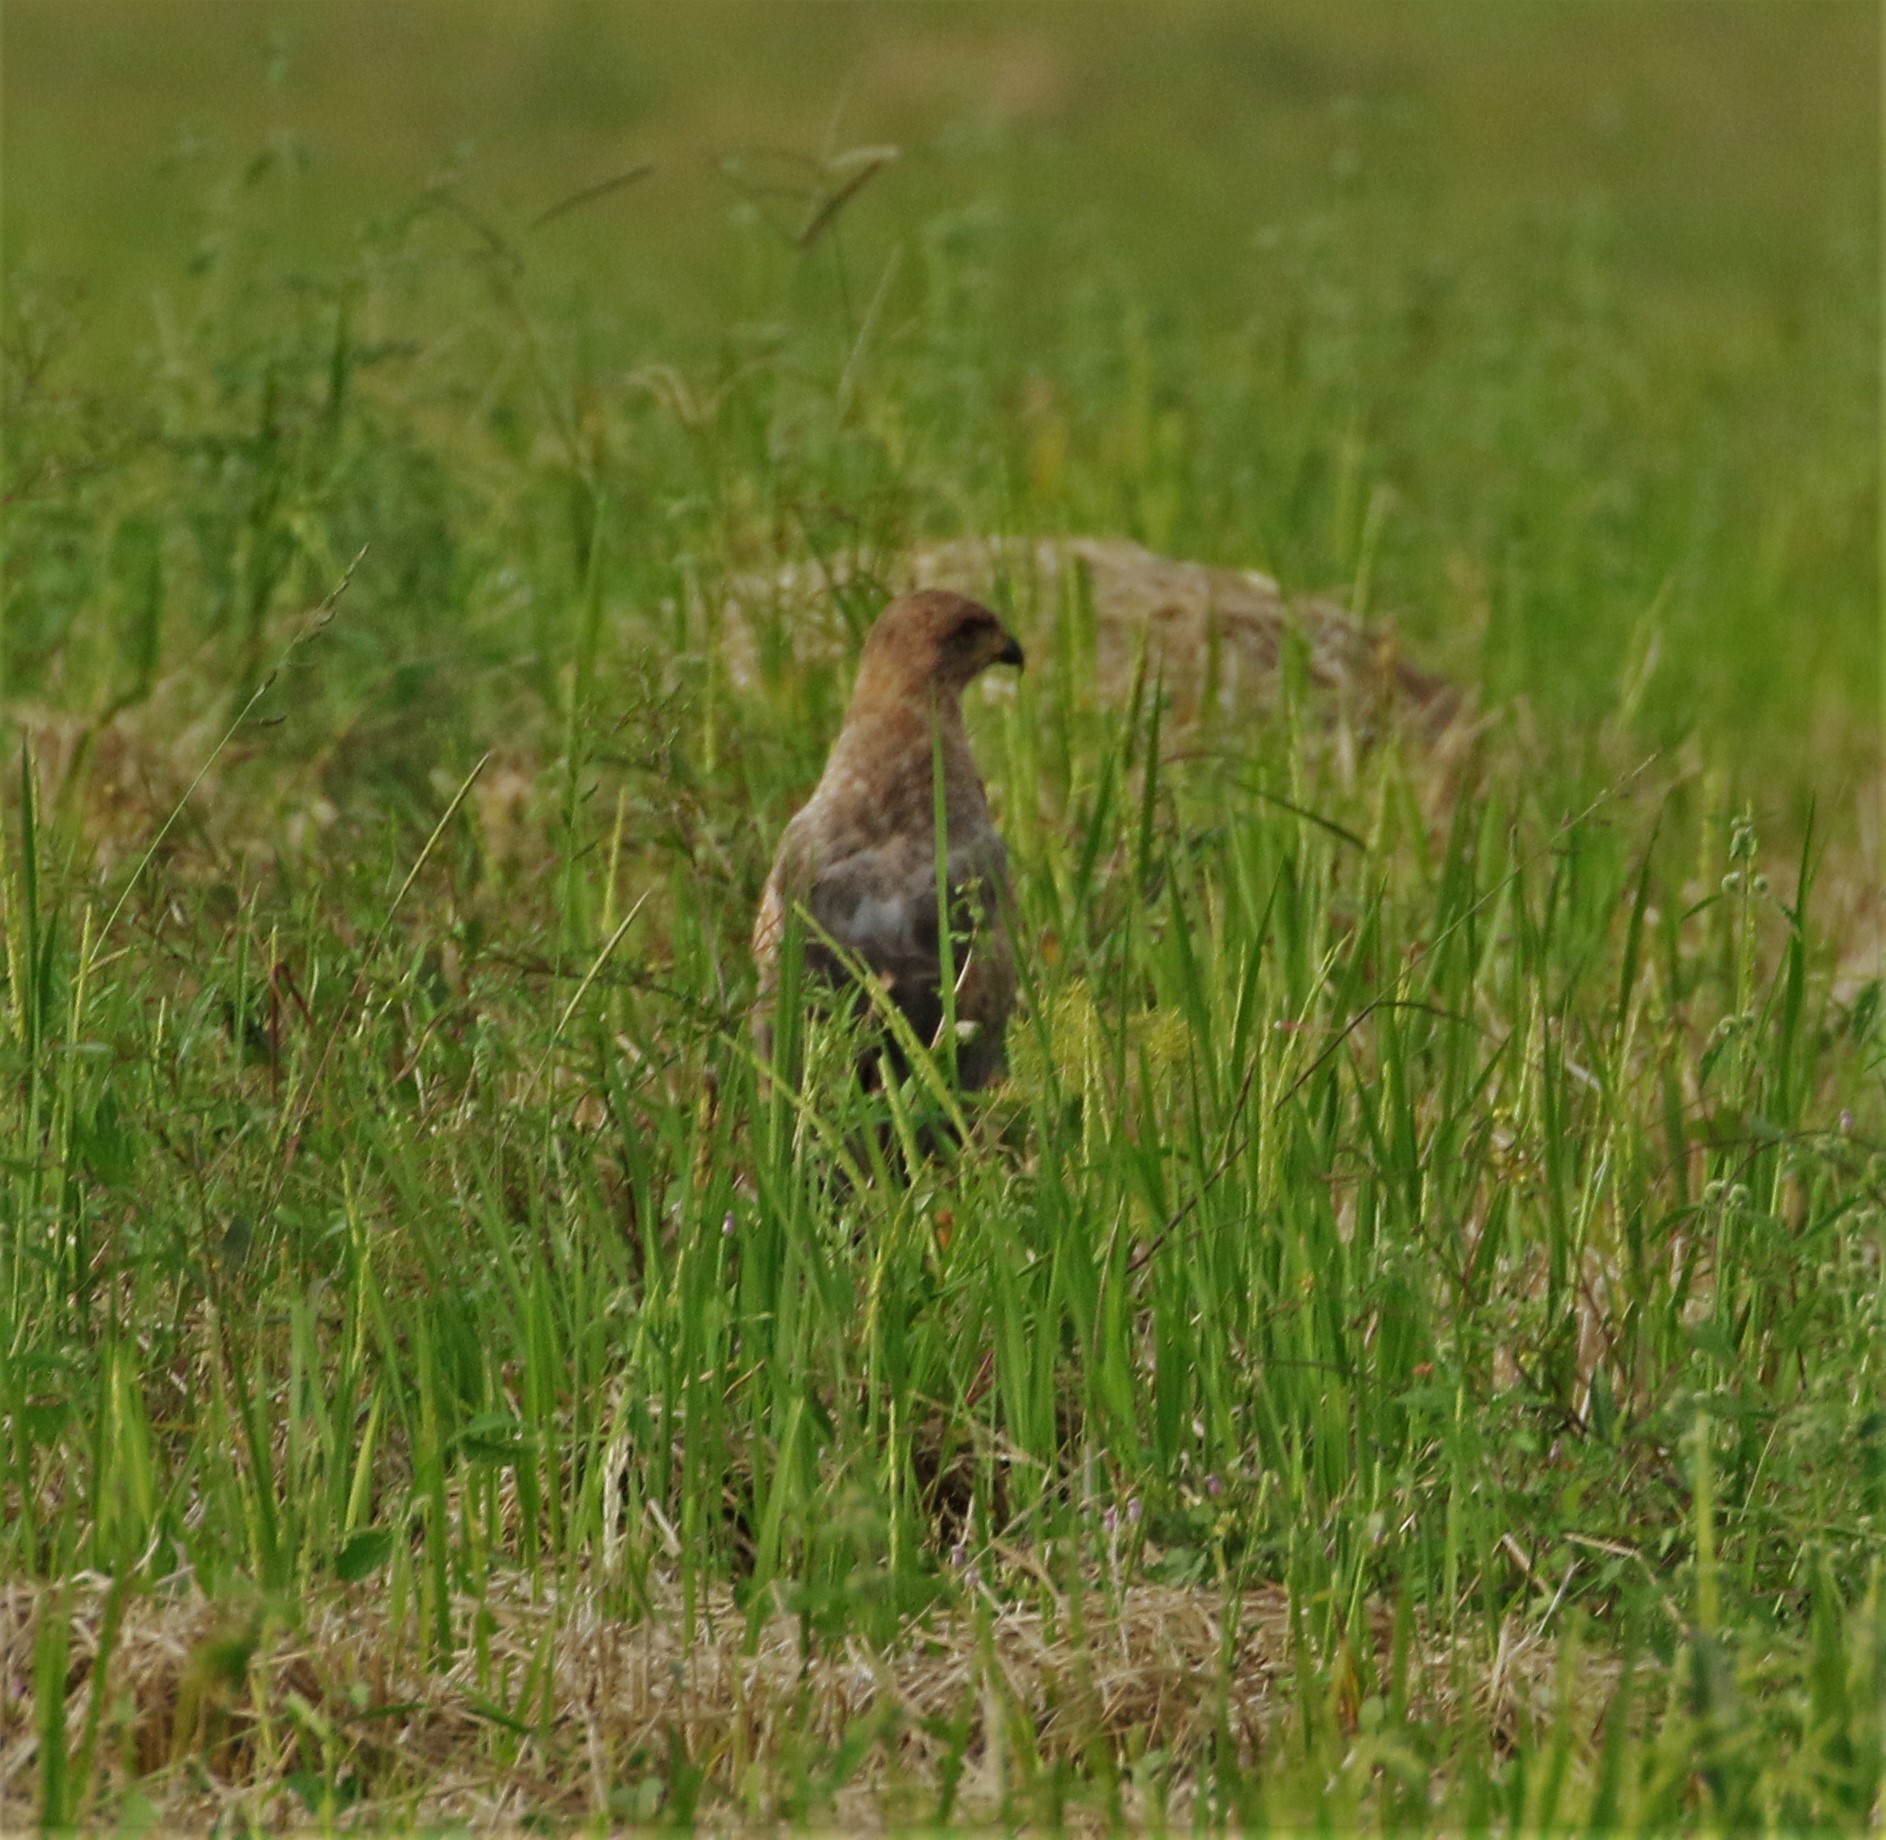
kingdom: Animalia
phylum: Chordata
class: Aves
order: Accipitriformes
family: Accipitridae
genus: Buteogallus
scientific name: Buteogallus meridionalis
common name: Savanna hawk
